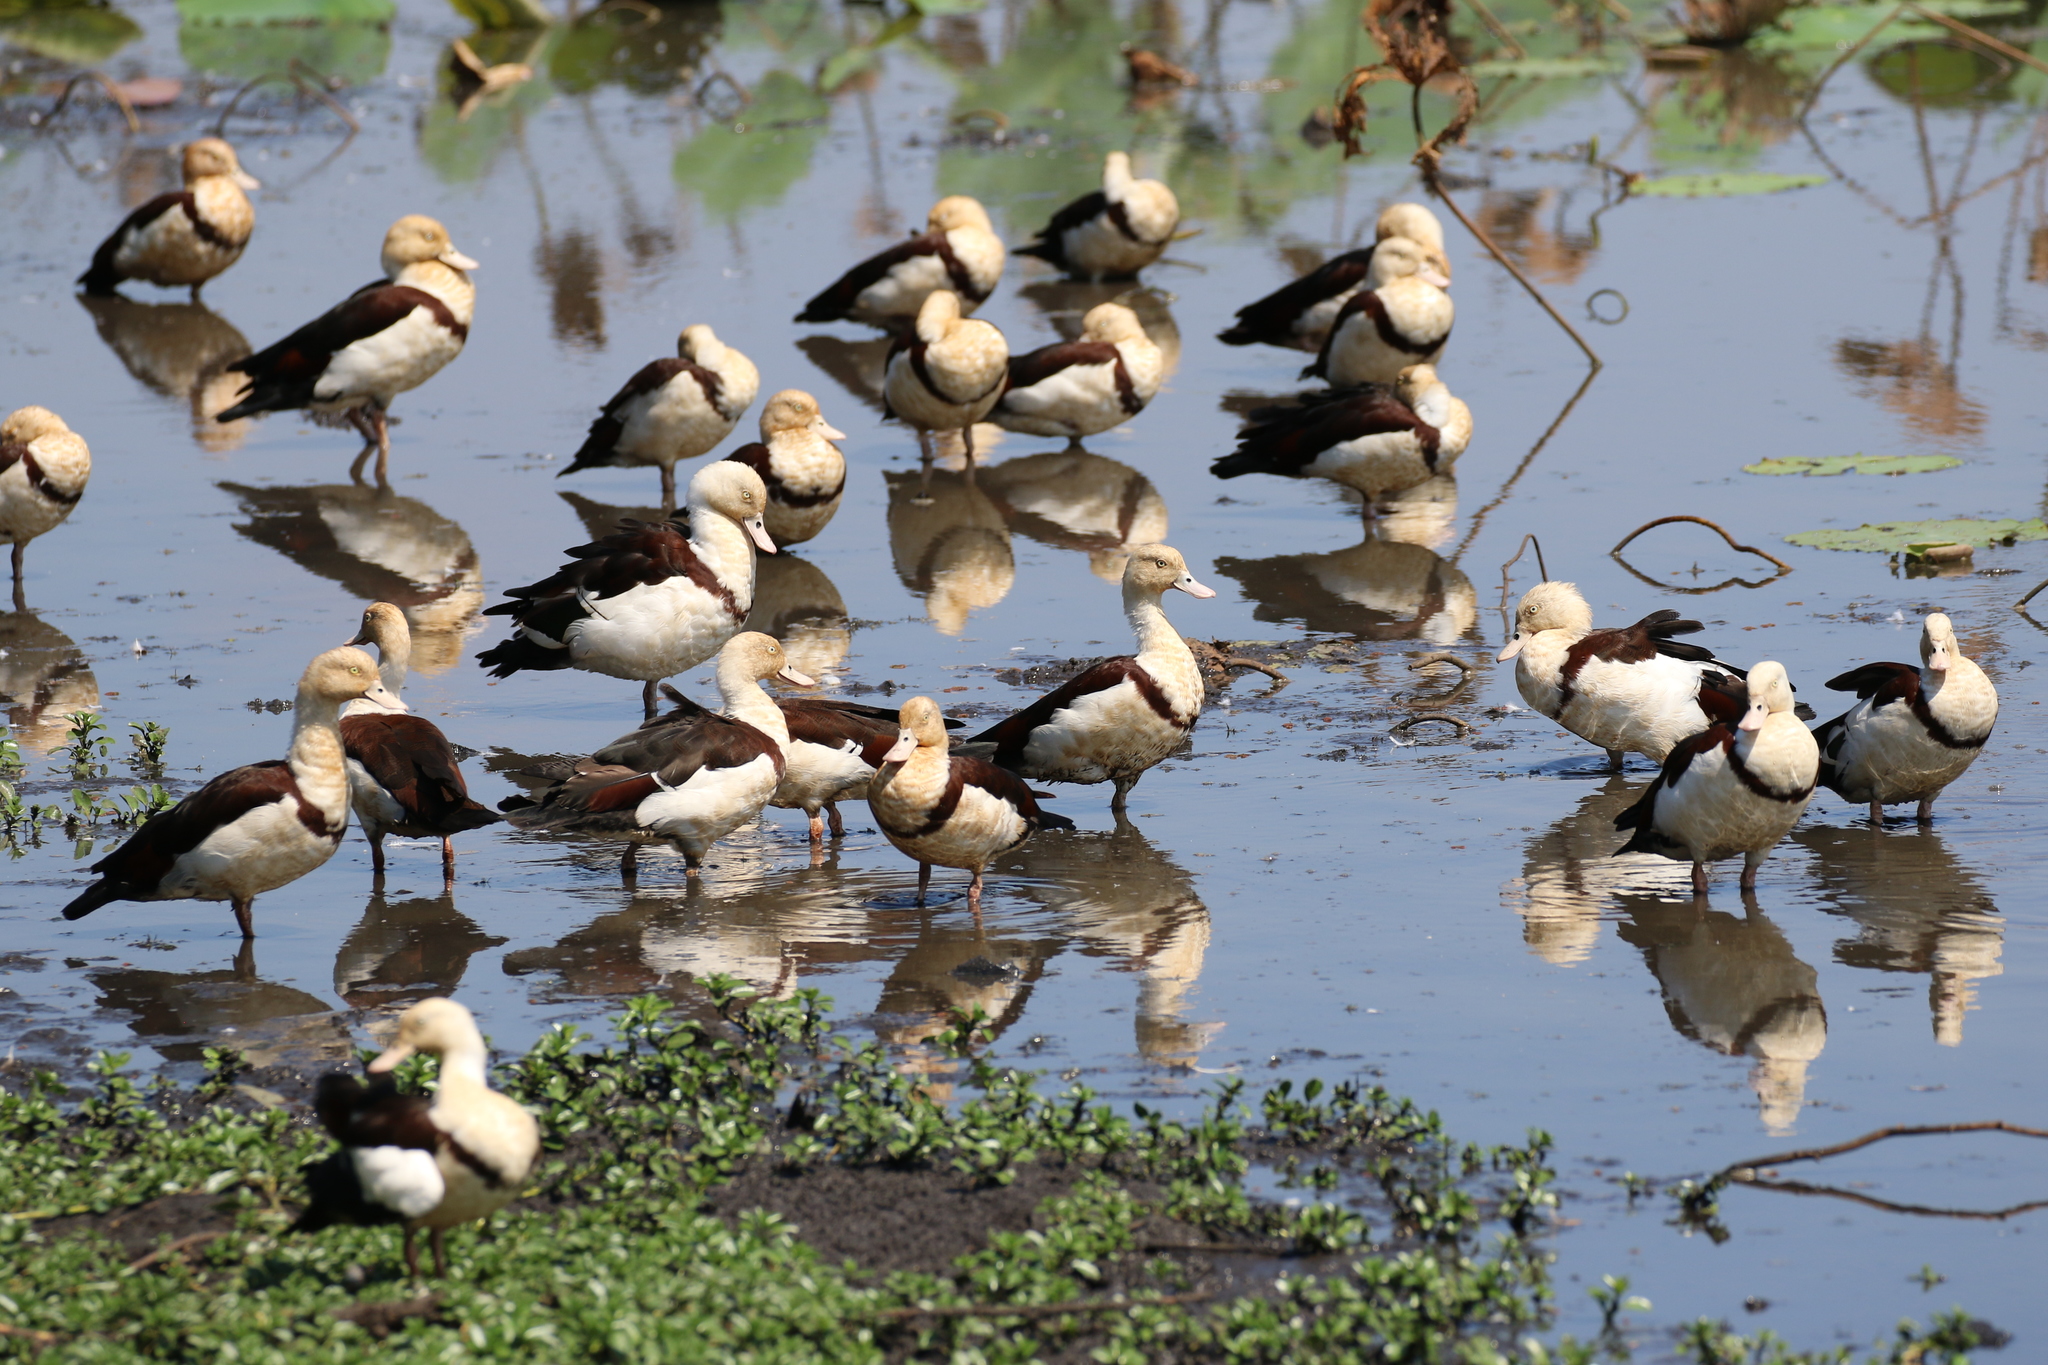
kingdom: Animalia
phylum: Chordata
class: Aves
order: Anseriformes
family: Anatidae
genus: Radjah
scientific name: Radjah radjah
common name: Radjah shelduck
